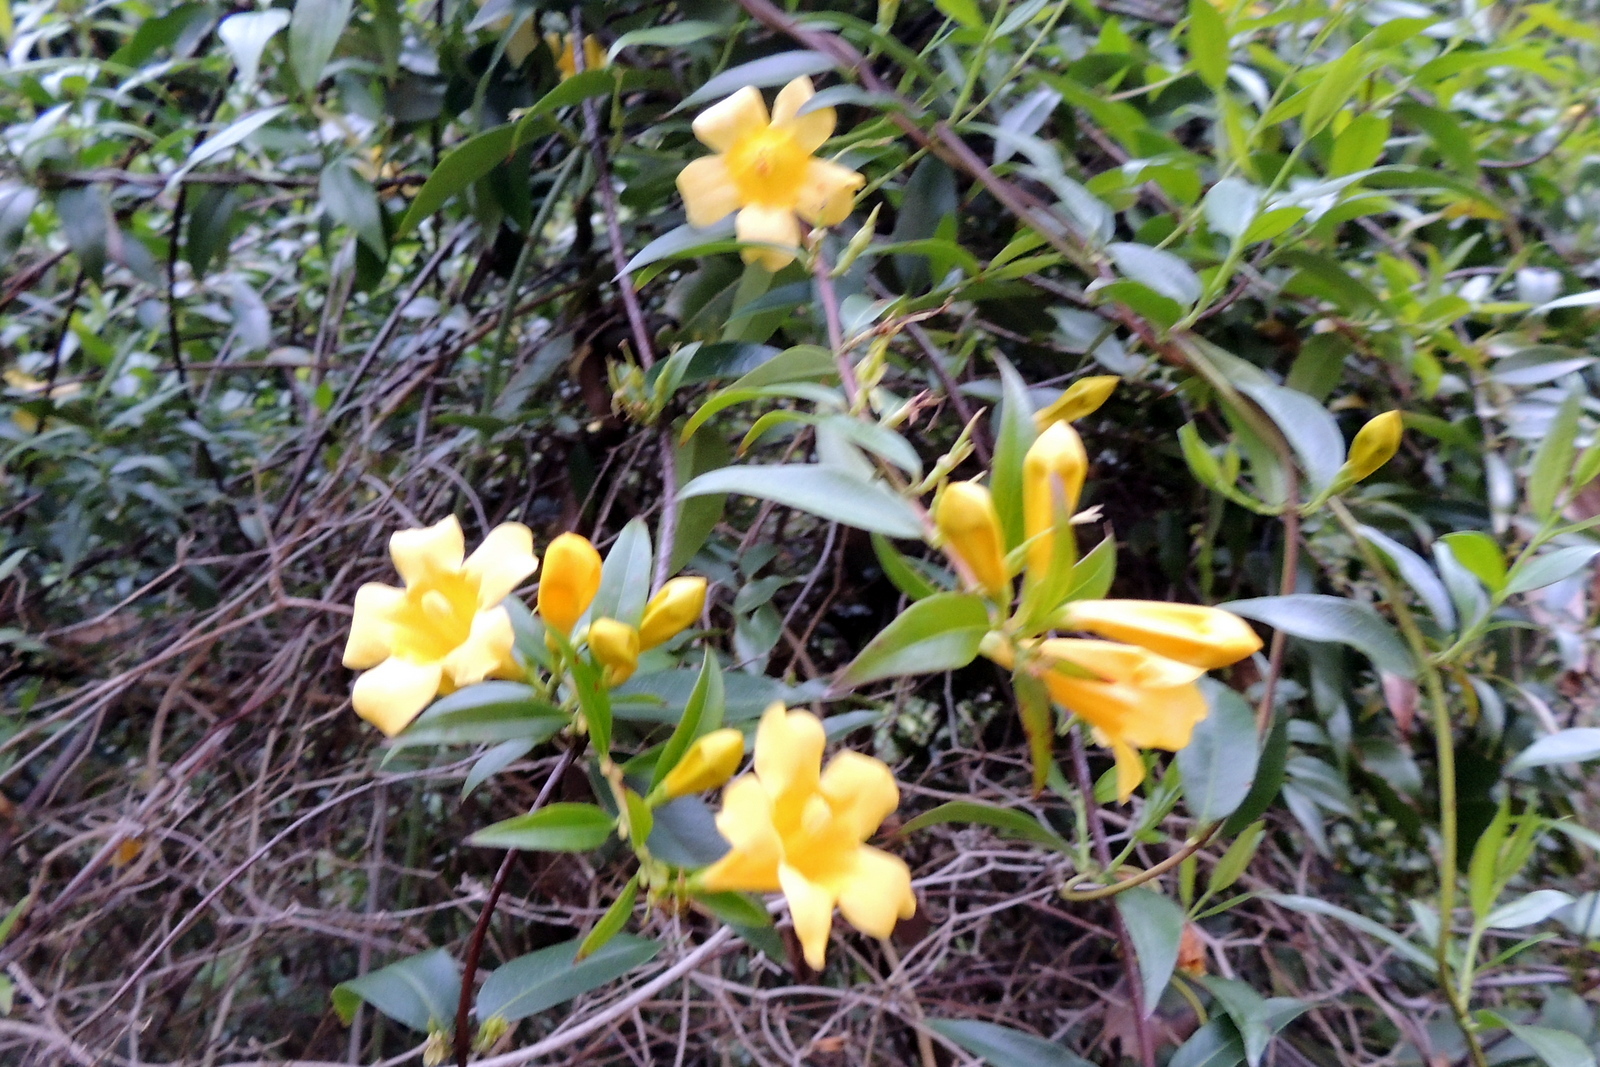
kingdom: Plantae
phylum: Tracheophyta
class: Magnoliopsida
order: Gentianales
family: Gelsemiaceae
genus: Gelsemium
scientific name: Gelsemium sempervirens
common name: Carolina-jasmine
